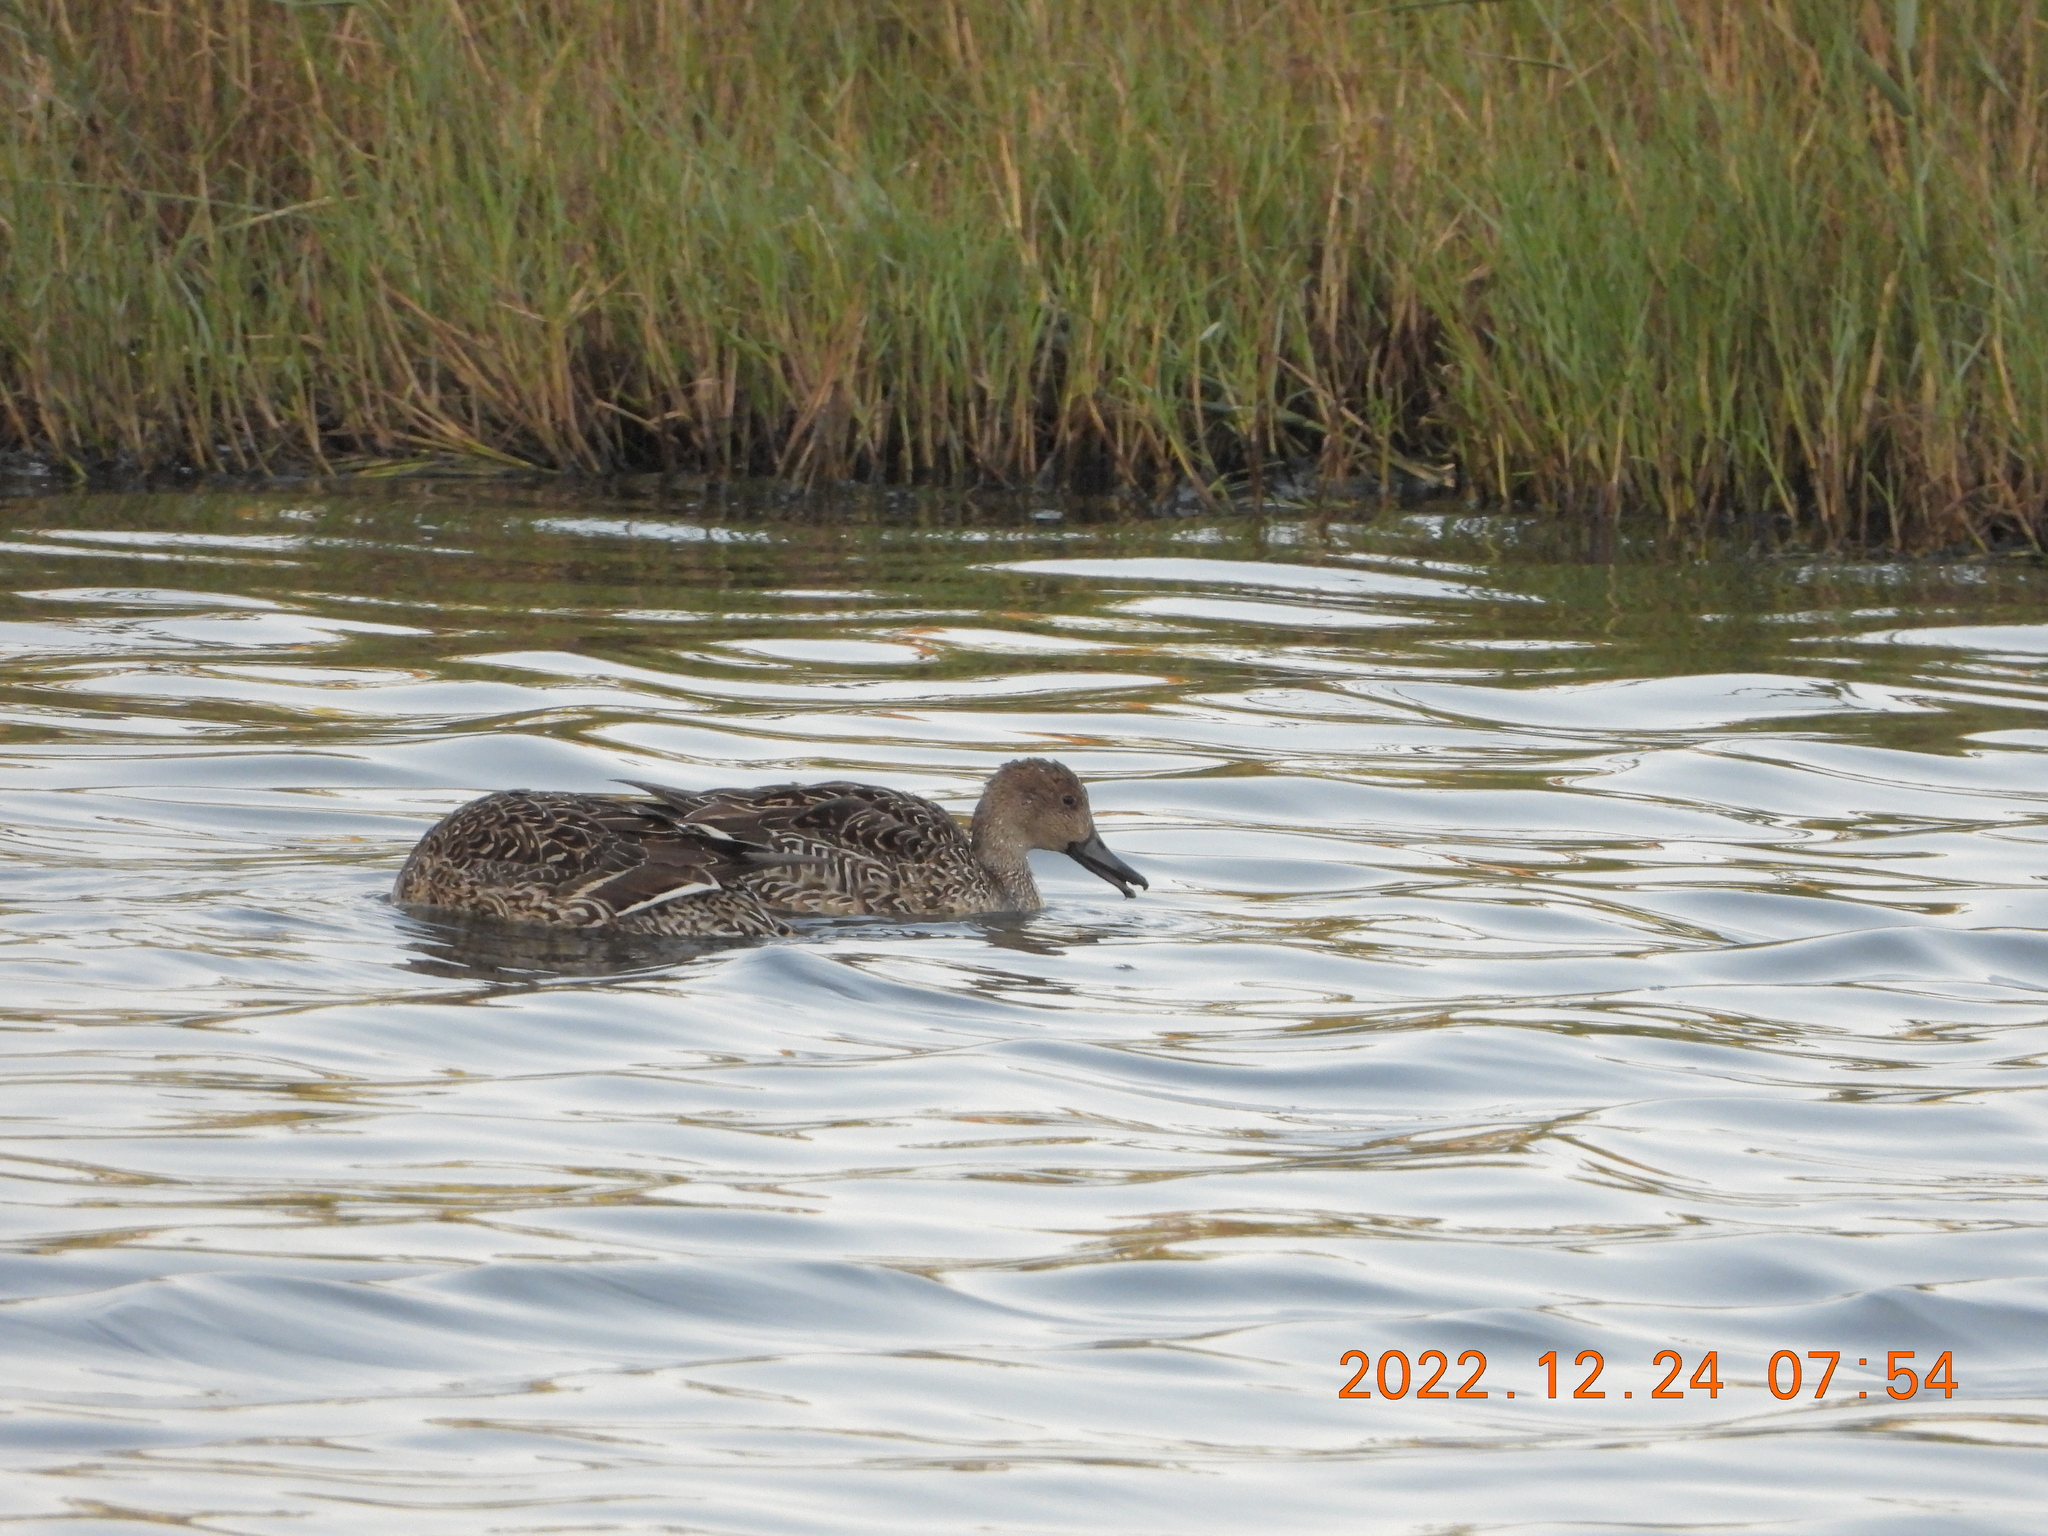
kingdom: Animalia
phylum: Chordata
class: Aves
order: Anseriformes
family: Anatidae
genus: Anas
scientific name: Anas acuta
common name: Northern pintail
